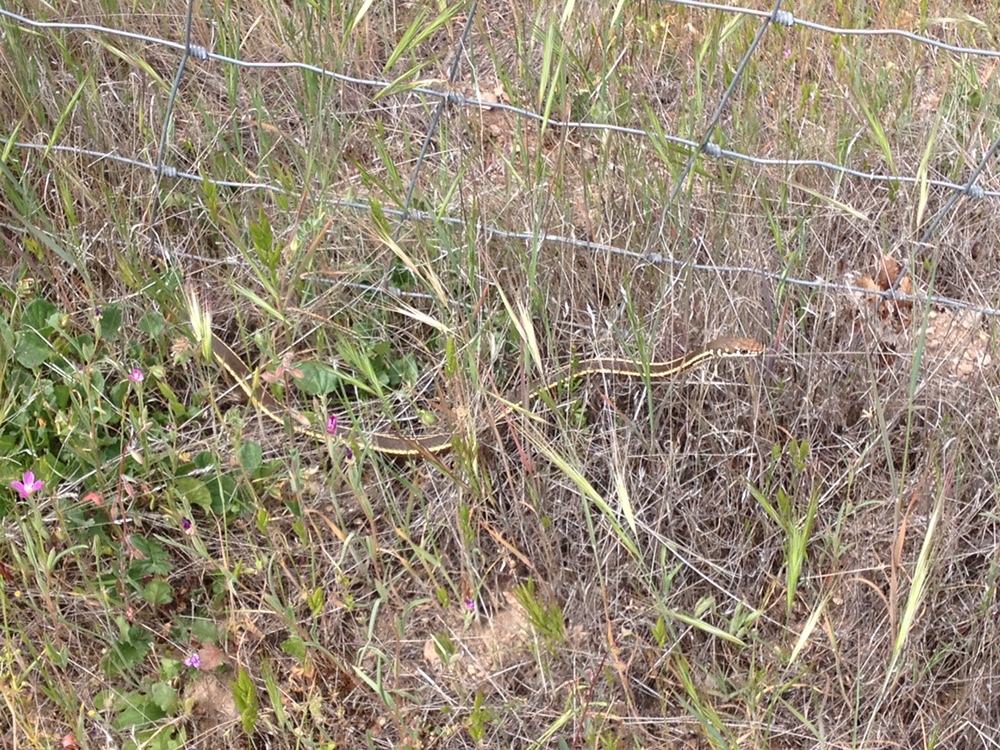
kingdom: Animalia
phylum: Chordata
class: Squamata
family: Colubridae
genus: Masticophis
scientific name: Masticophis lateralis
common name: Striped racer
